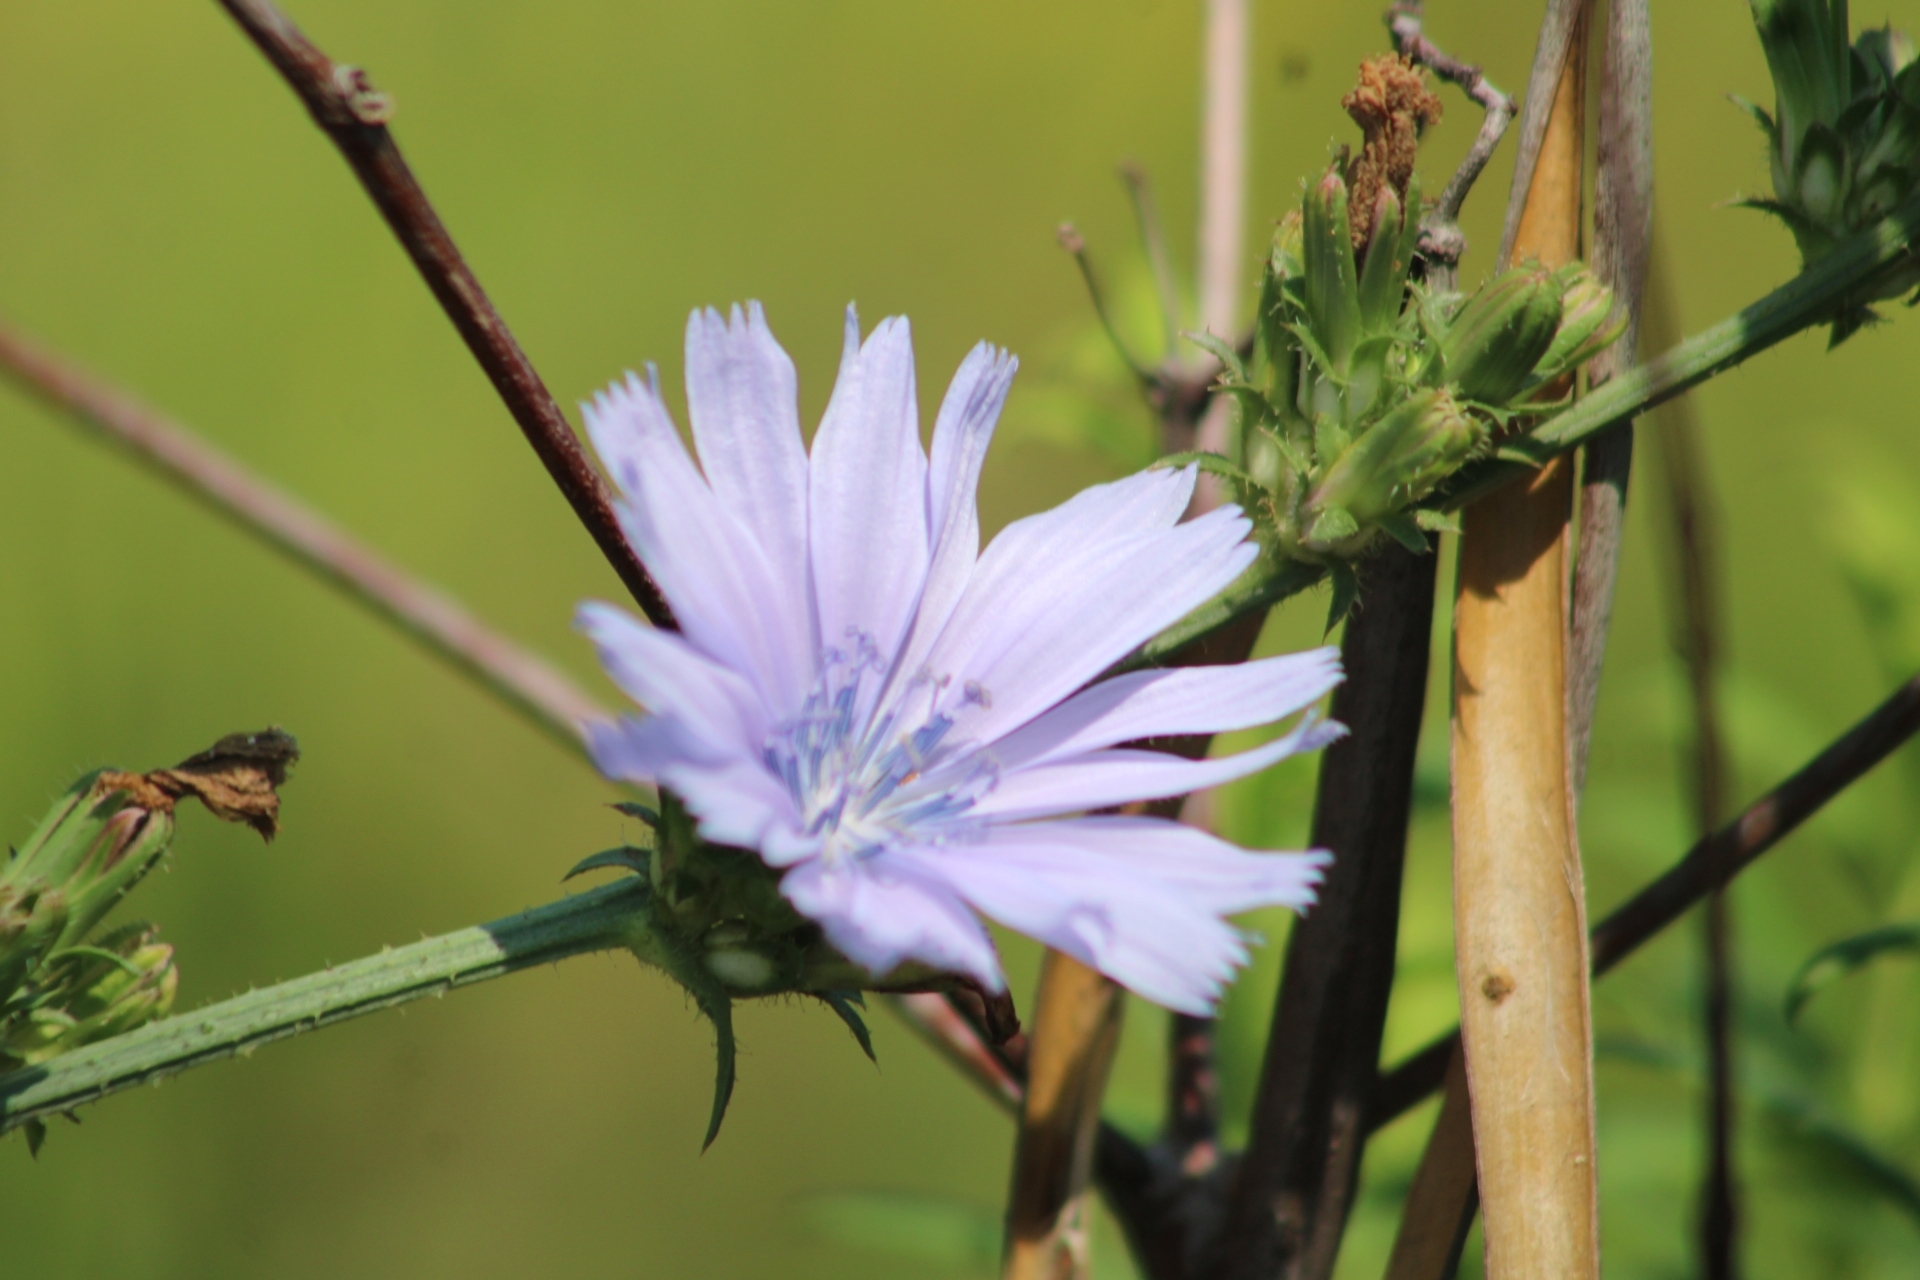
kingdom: Plantae
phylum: Tracheophyta
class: Magnoliopsida
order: Asterales
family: Asteraceae
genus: Cichorium
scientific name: Cichorium intybus
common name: Chicory
